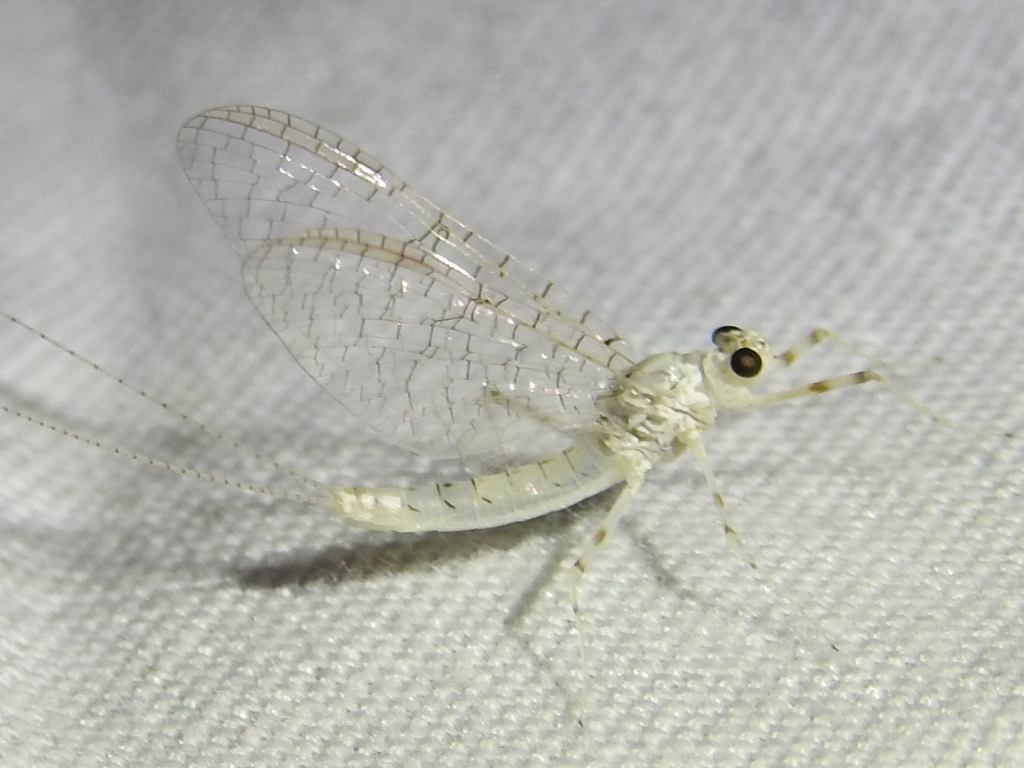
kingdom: Animalia
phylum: Arthropoda
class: Insecta
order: Ephemeroptera
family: Heptageniidae
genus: Maccaffertium
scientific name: Maccaffertium mexicanum
